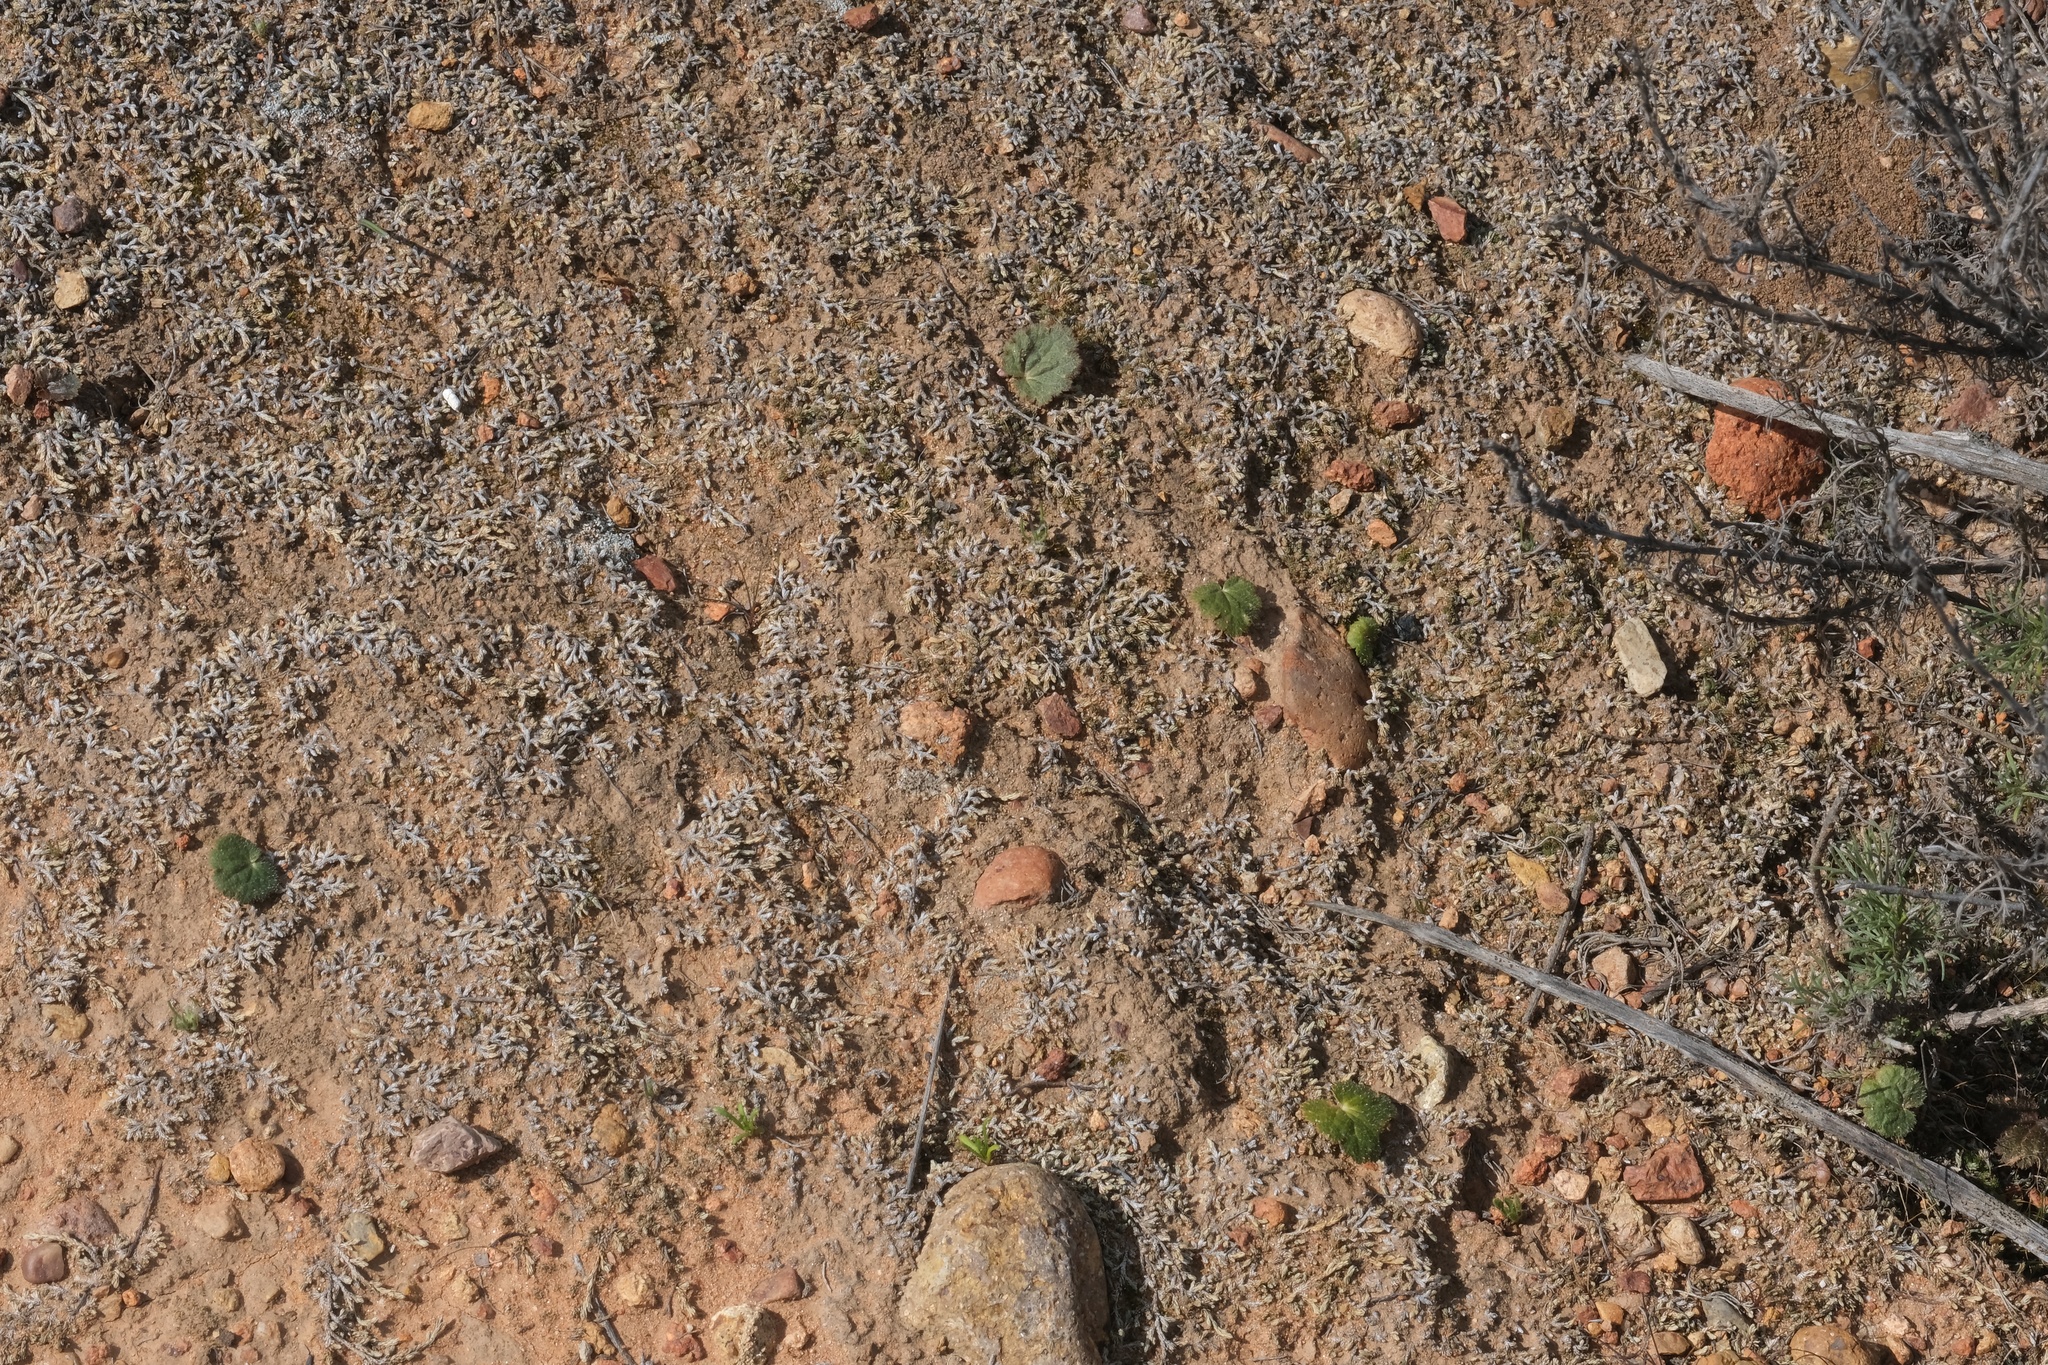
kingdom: Plantae
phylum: Tracheophyta
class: Magnoliopsida
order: Saxifragales
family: Saxifragaceae
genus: Jepsonia
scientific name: Jepsonia parryi
